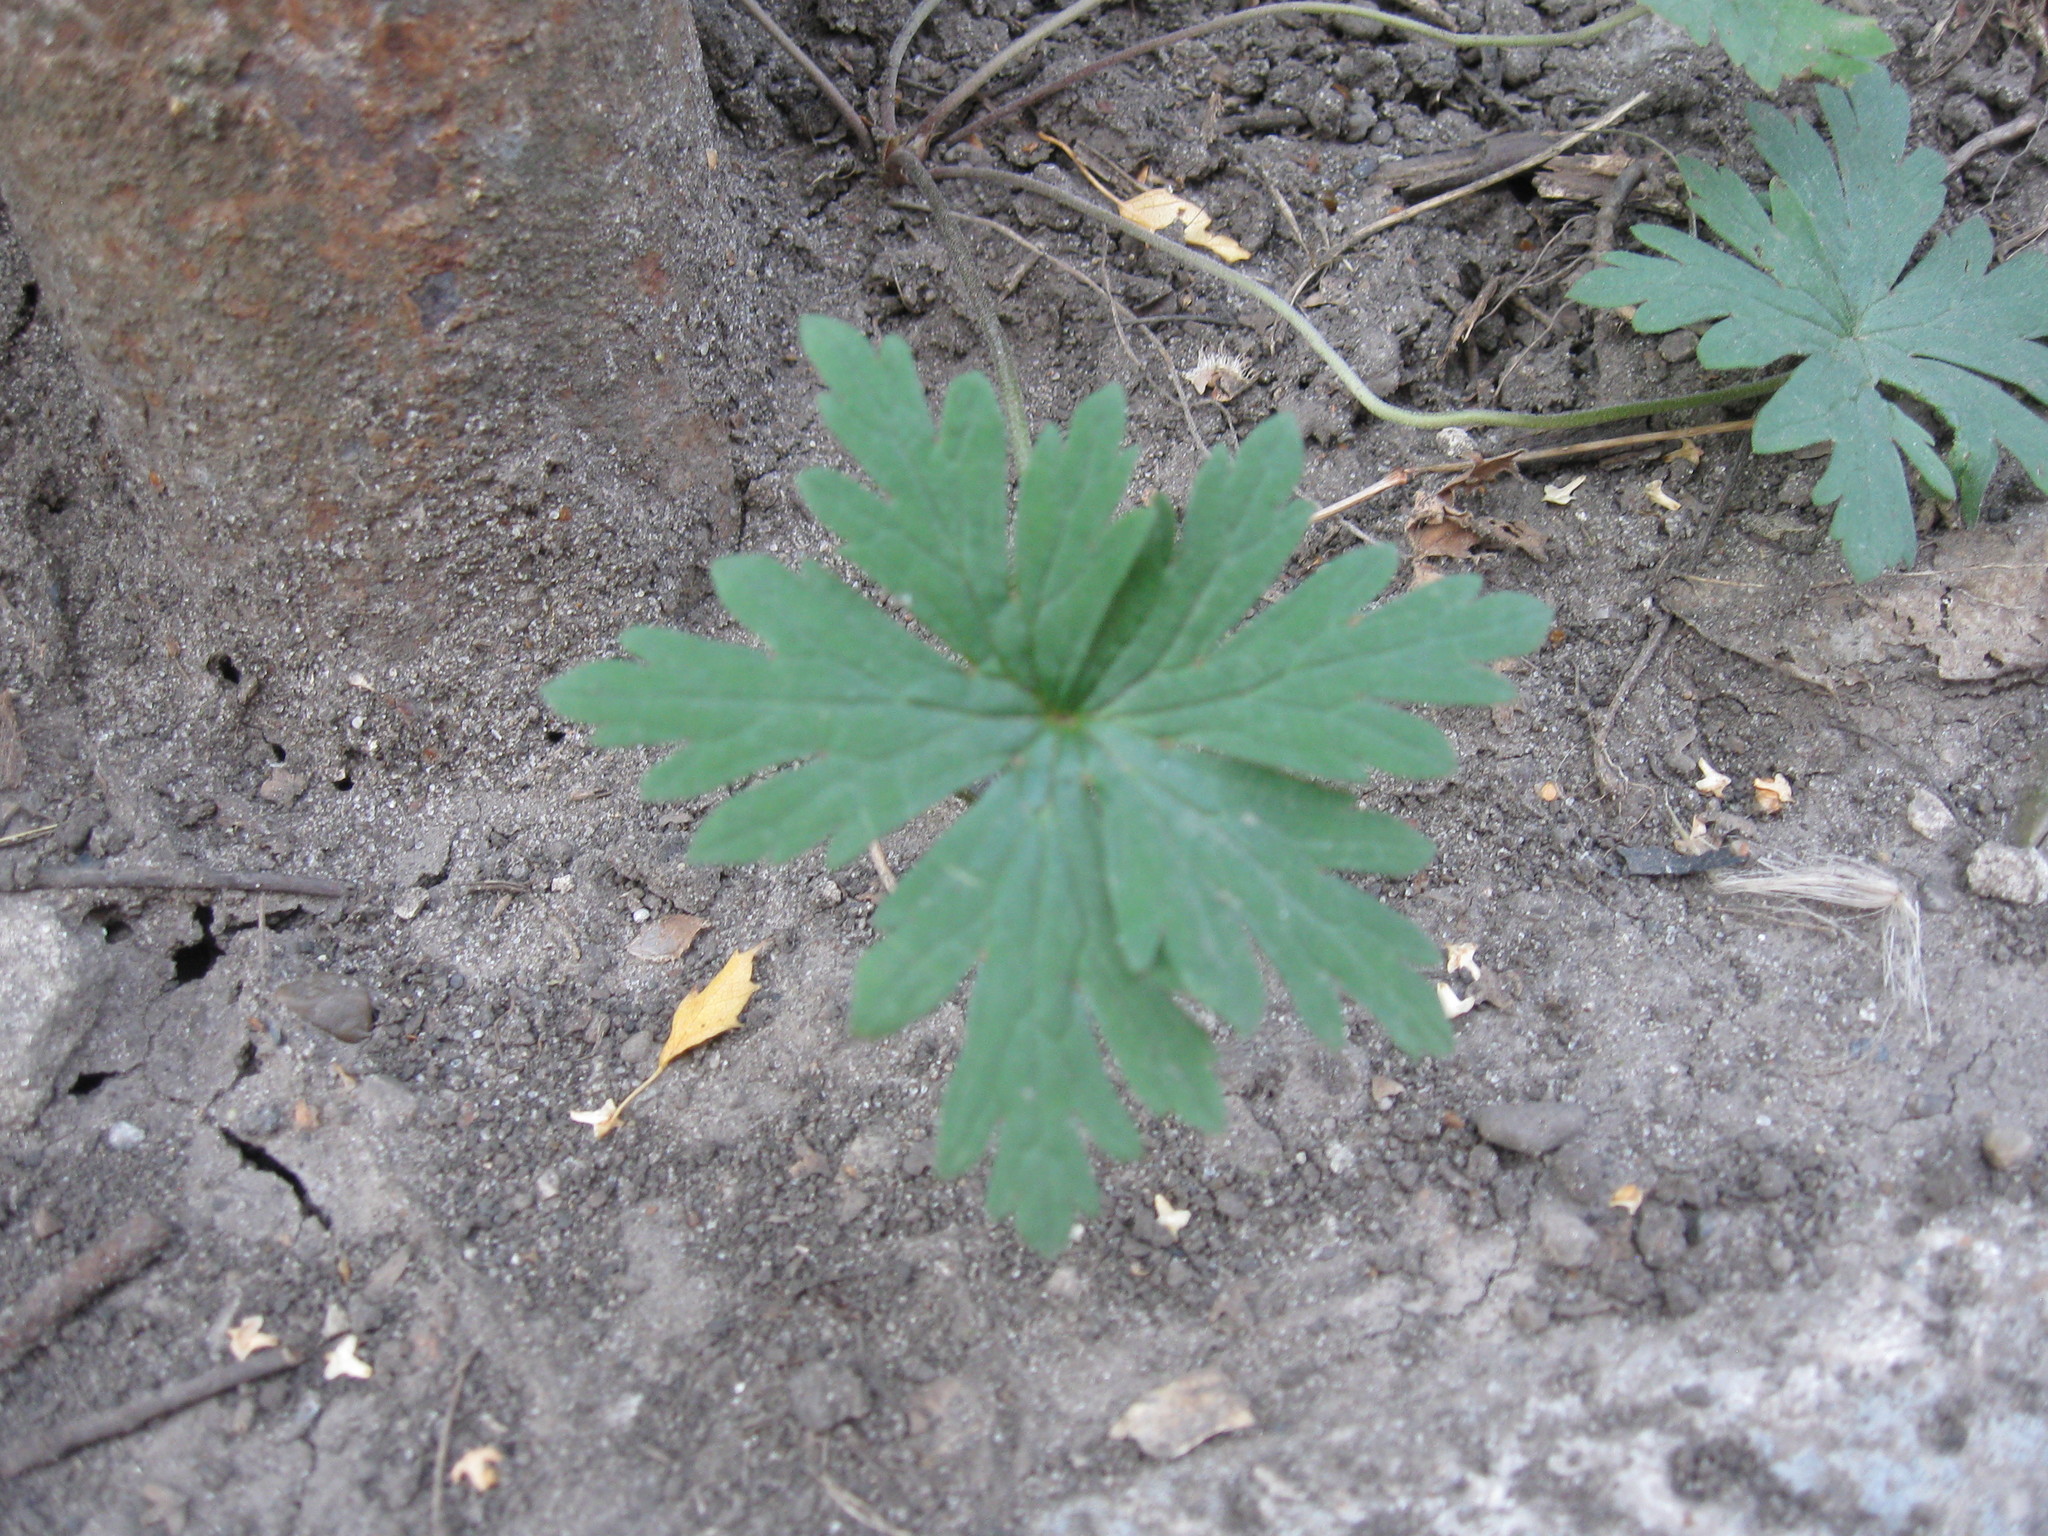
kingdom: Plantae
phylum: Tracheophyta
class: Magnoliopsida
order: Geraniales
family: Geraniaceae
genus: Geranium
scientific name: Geranium sibiricum
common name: Siberian crane's-bill
